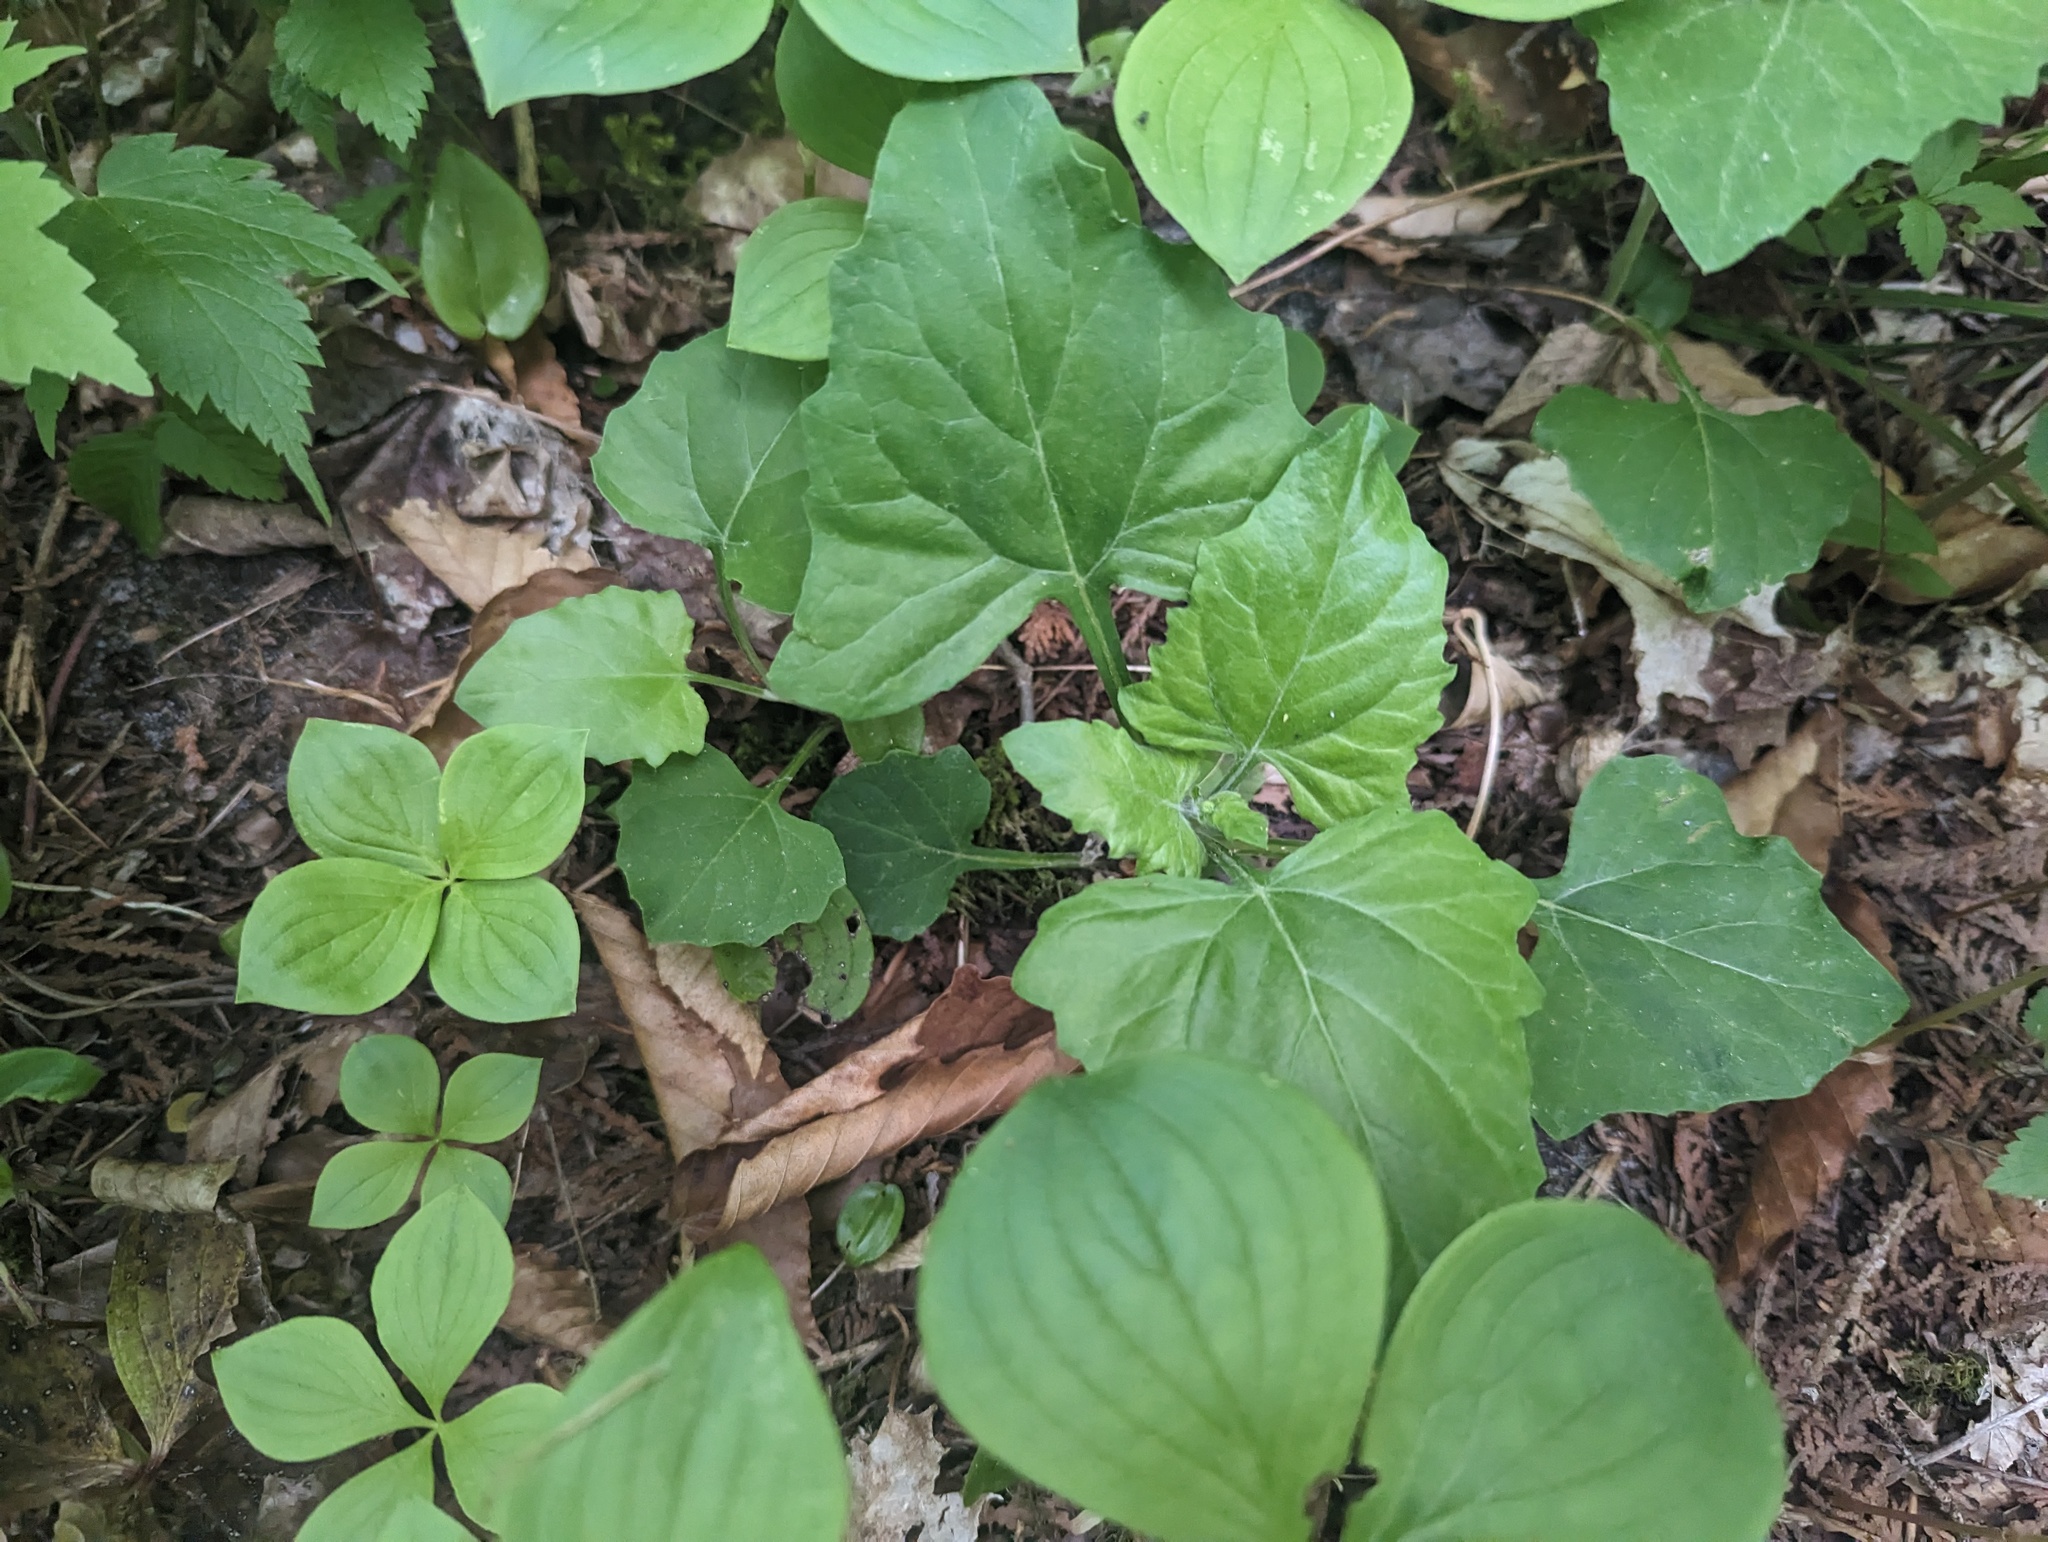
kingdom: Plantae
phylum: Tracheophyta
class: Magnoliopsida
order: Asterales
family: Asteraceae
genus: Adenocaulon
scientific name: Adenocaulon bicolor
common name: Trailplant
